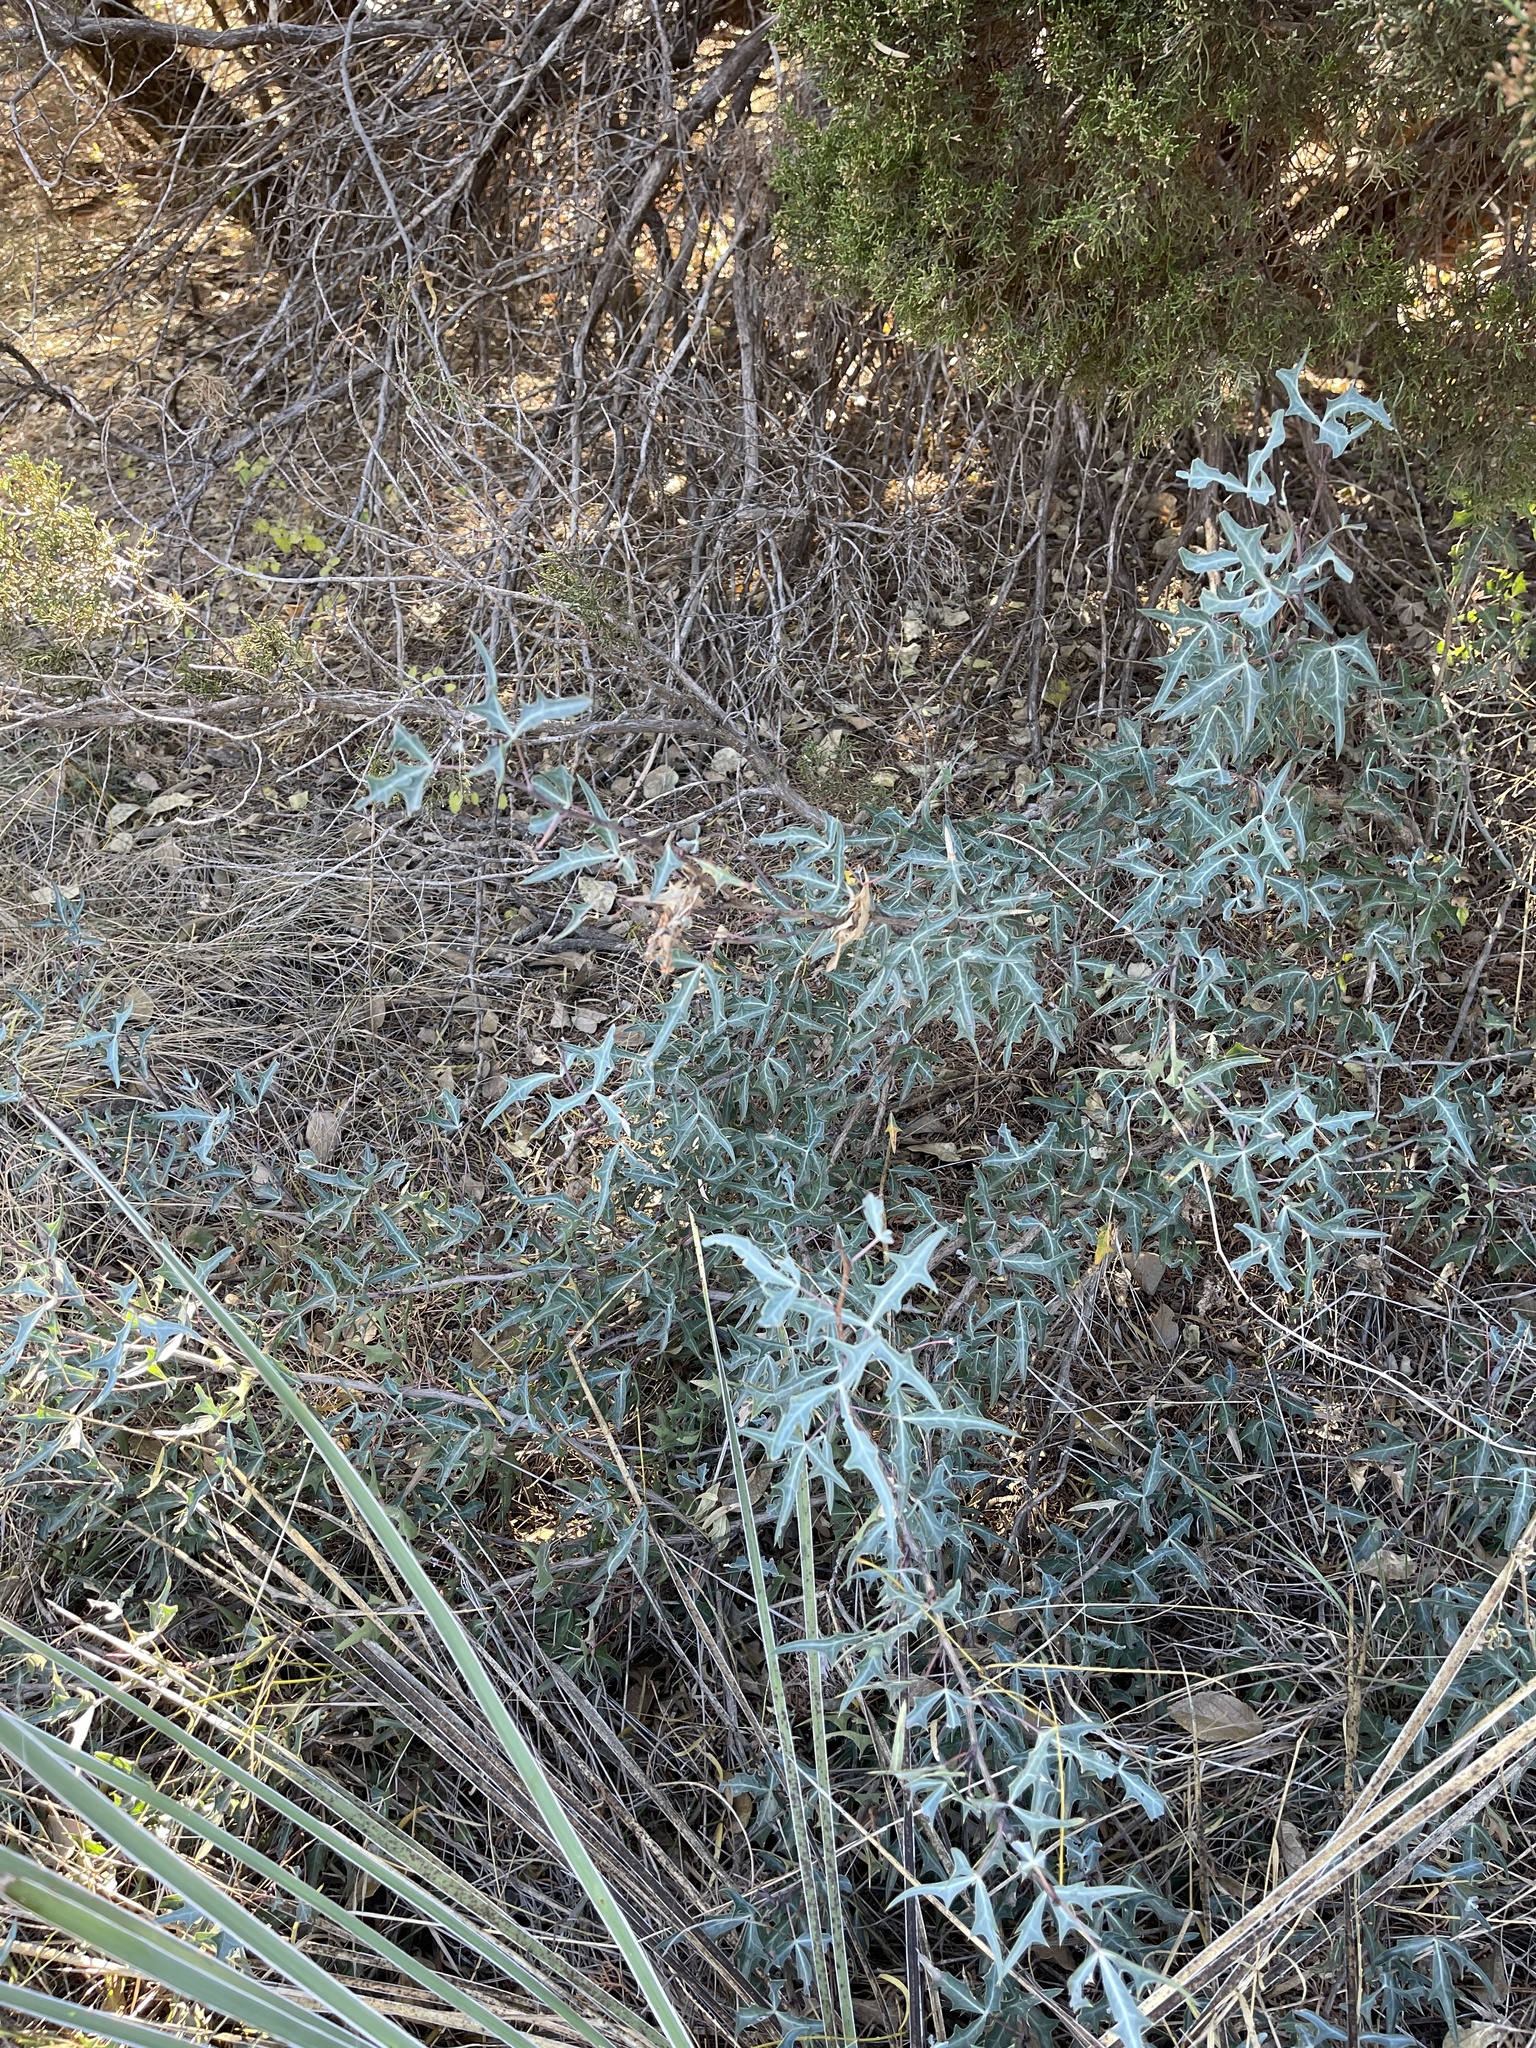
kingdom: Plantae
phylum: Tracheophyta
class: Magnoliopsida
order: Ranunculales
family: Berberidaceae
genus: Alloberberis
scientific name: Alloberberis trifoliolata
